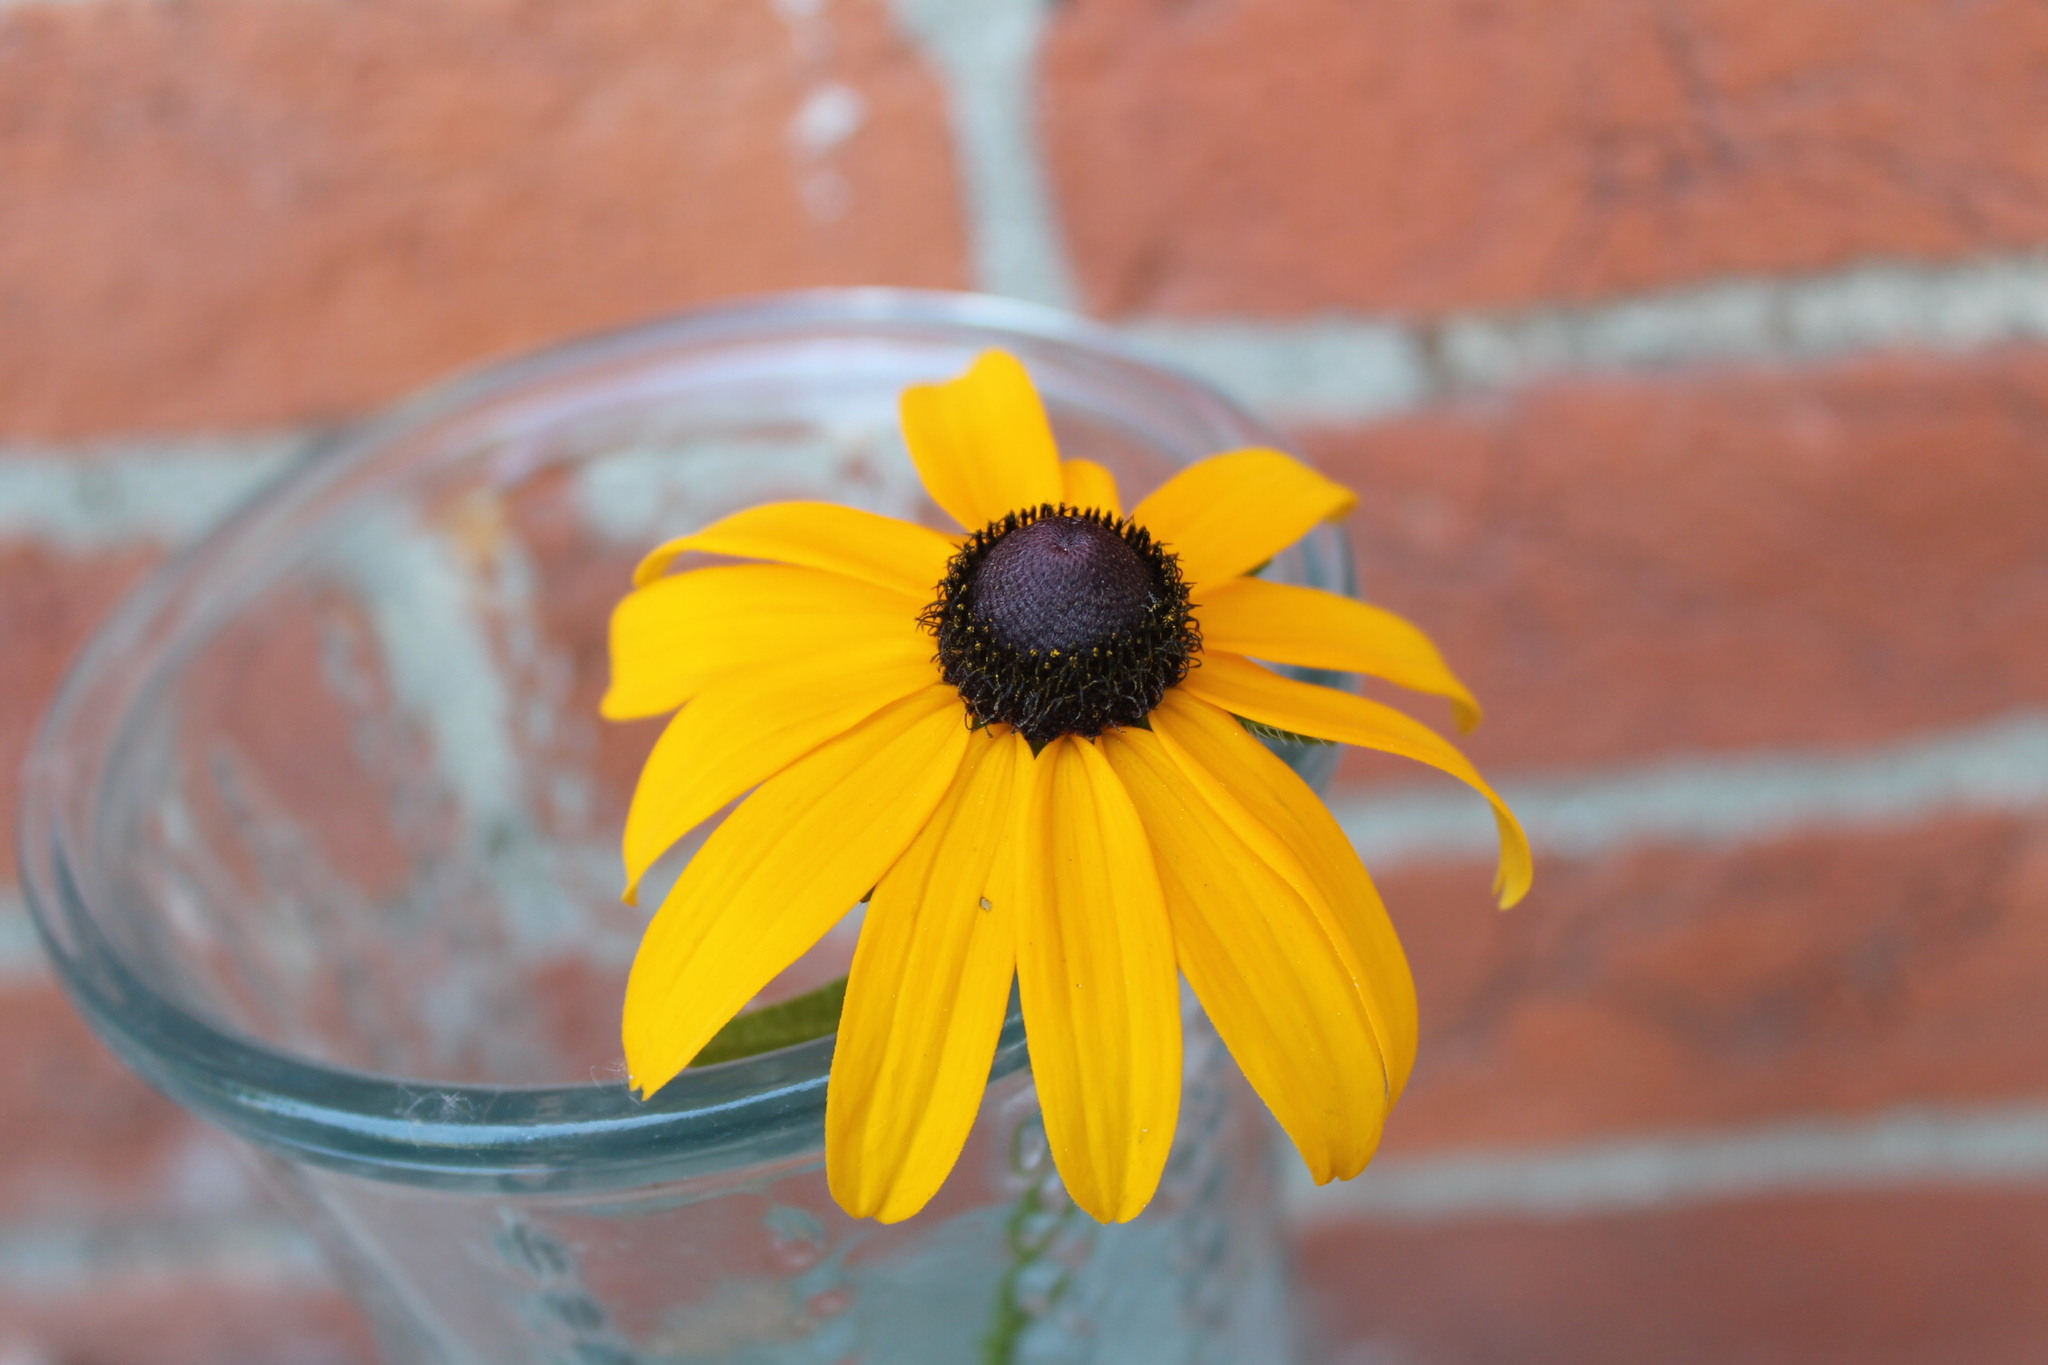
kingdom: Plantae
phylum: Tracheophyta
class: Magnoliopsida
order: Asterales
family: Asteraceae
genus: Rudbeckia
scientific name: Rudbeckia fulgida
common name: Perennial coneflower
